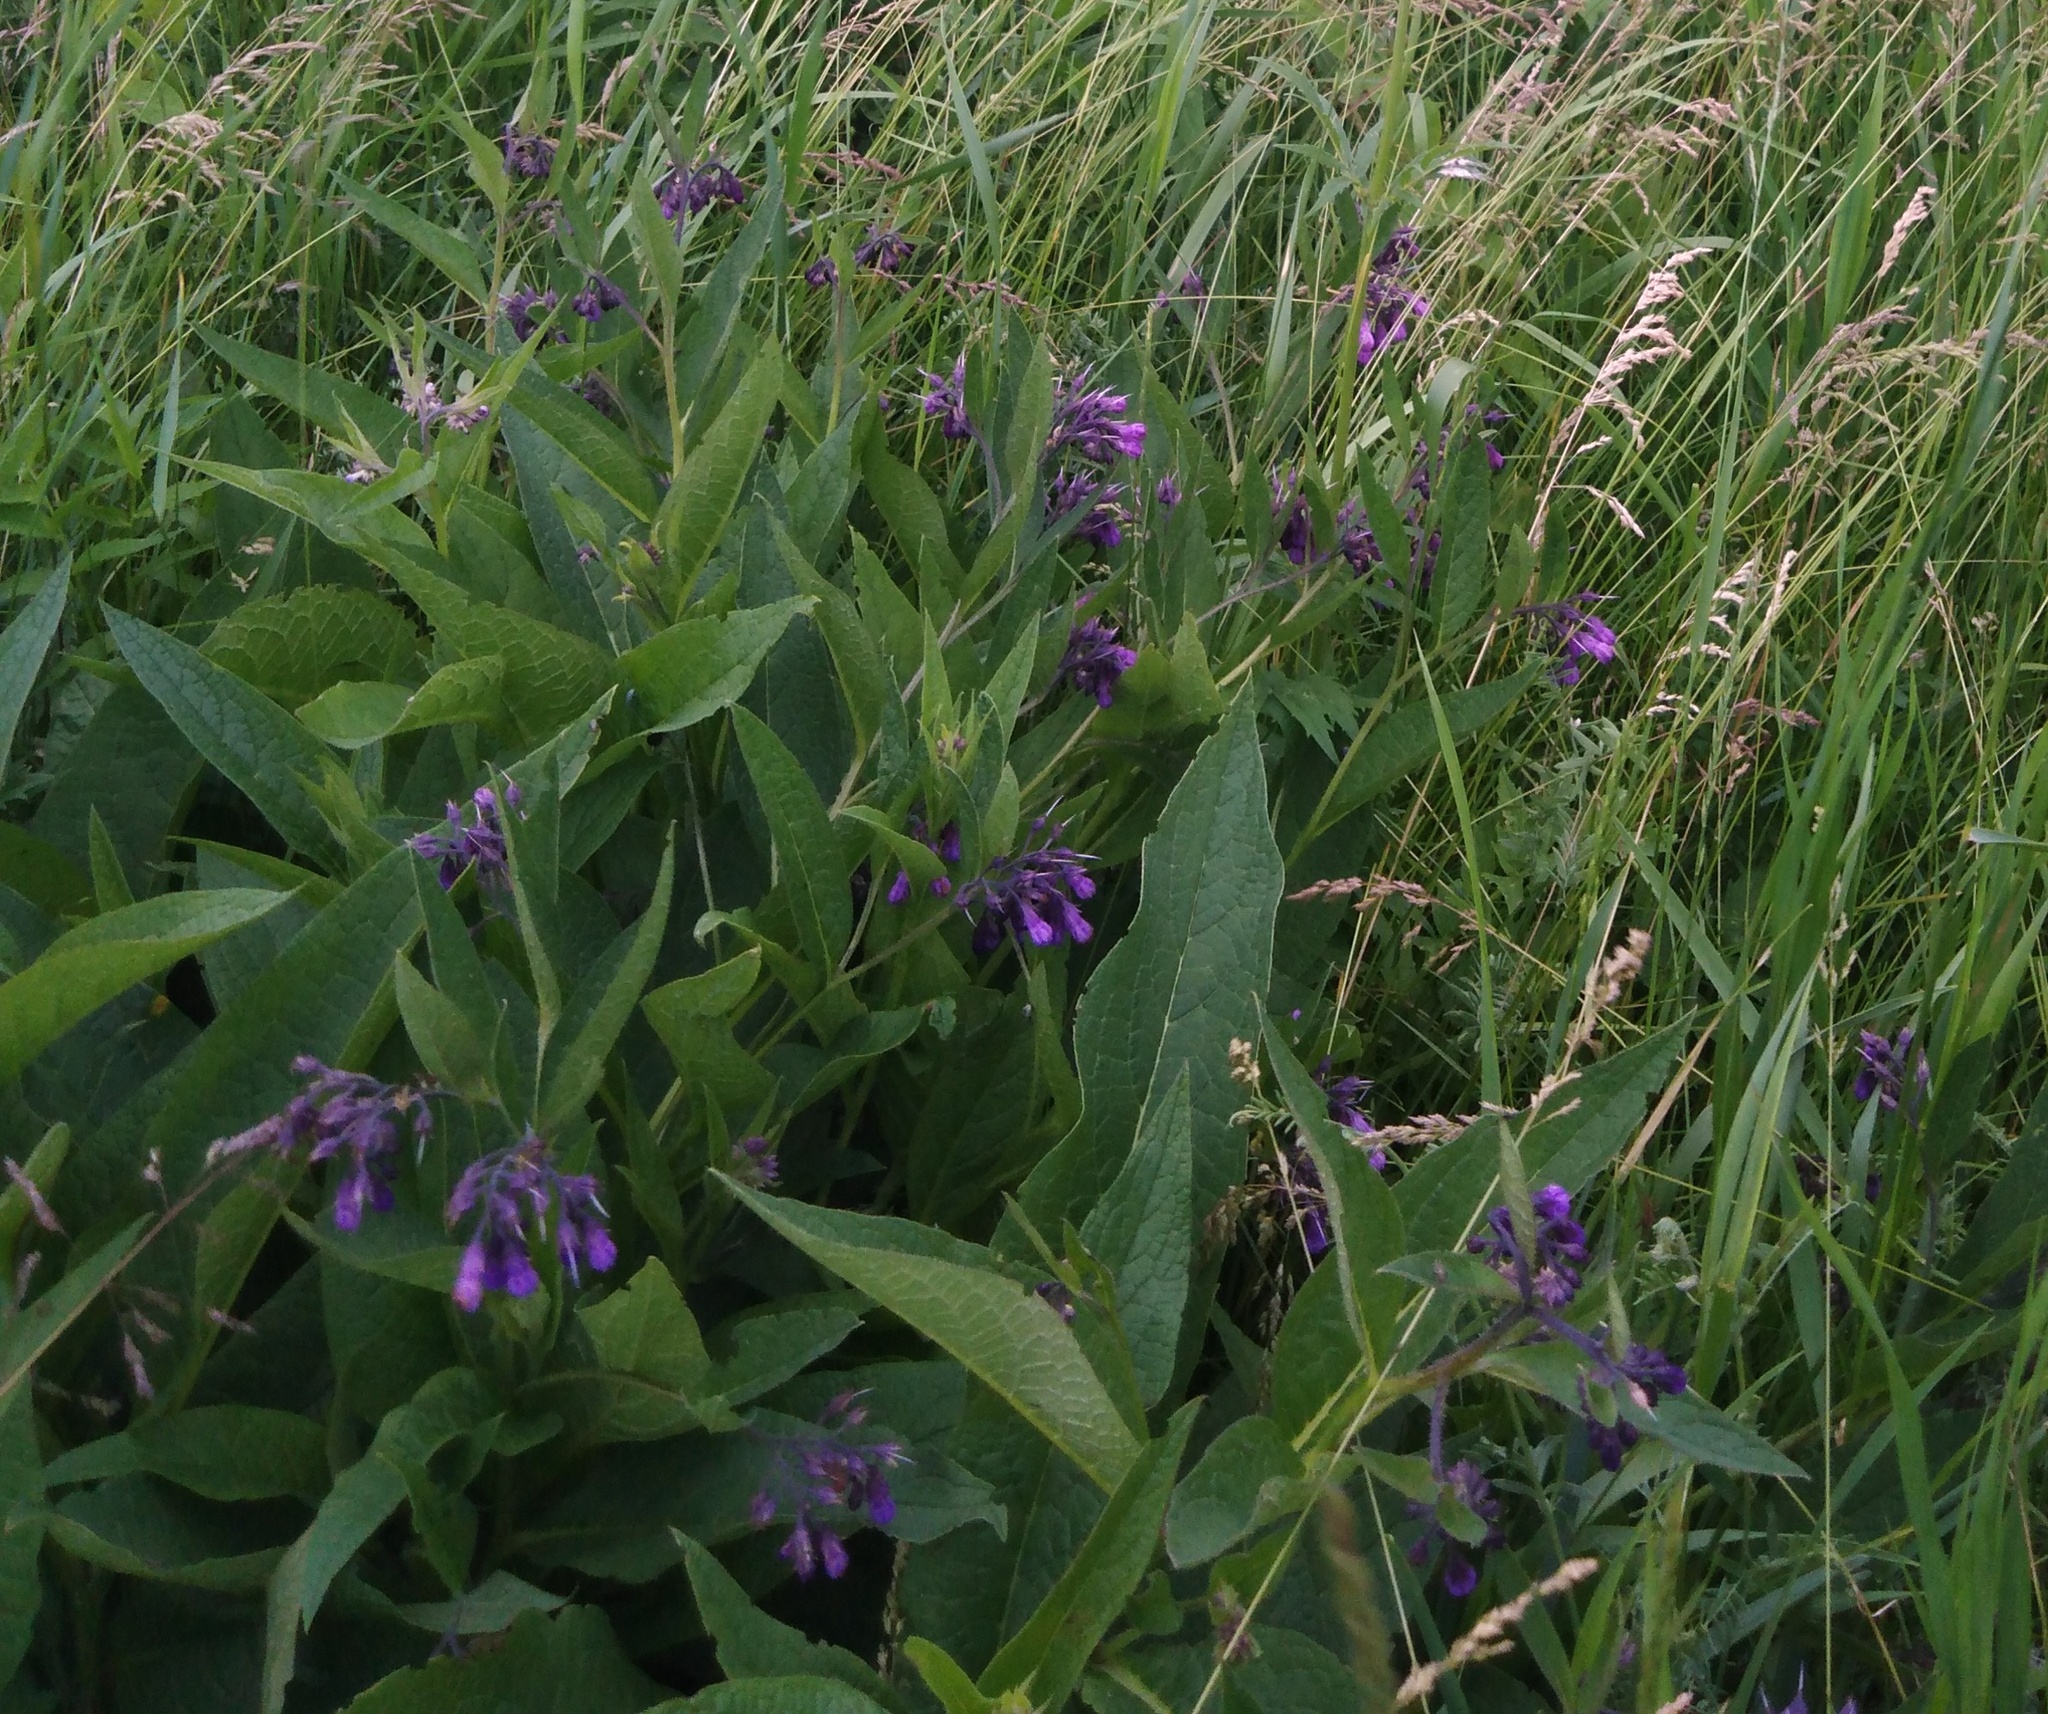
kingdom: Plantae
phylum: Tracheophyta
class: Magnoliopsida
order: Boraginales
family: Boraginaceae
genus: Symphytum
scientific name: Symphytum officinale
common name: Common comfrey
